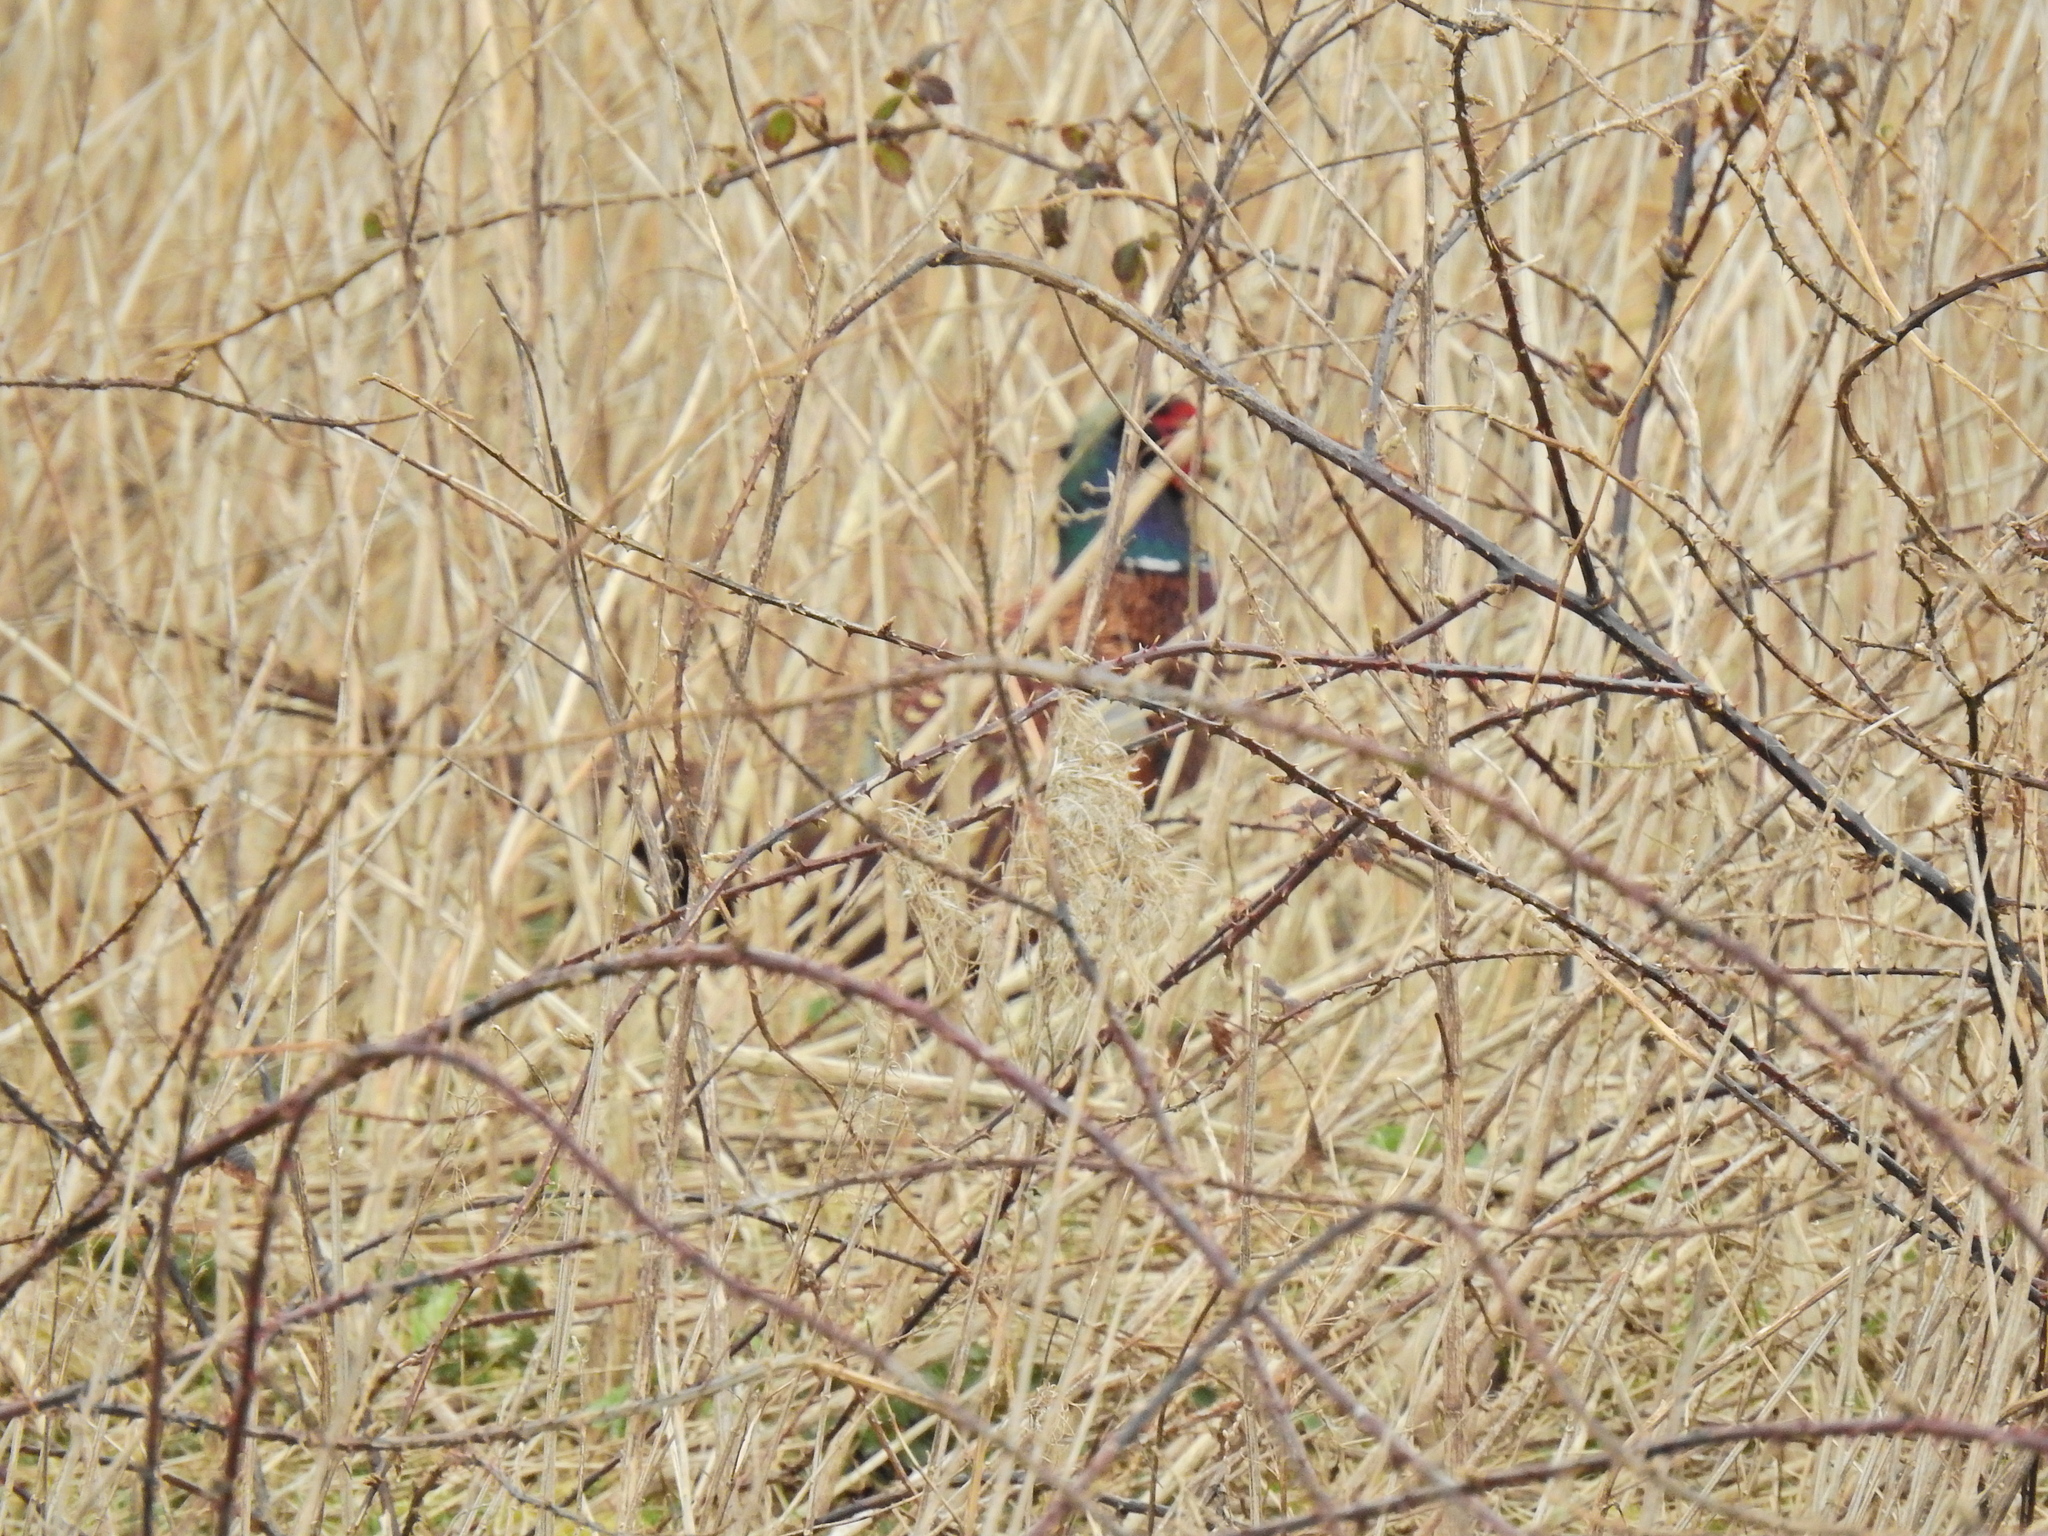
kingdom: Animalia
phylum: Chordata
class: Aves
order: Galliformes
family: Phasianidae
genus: Phasianus
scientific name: Phasianus colchicus
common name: Common pheasant
